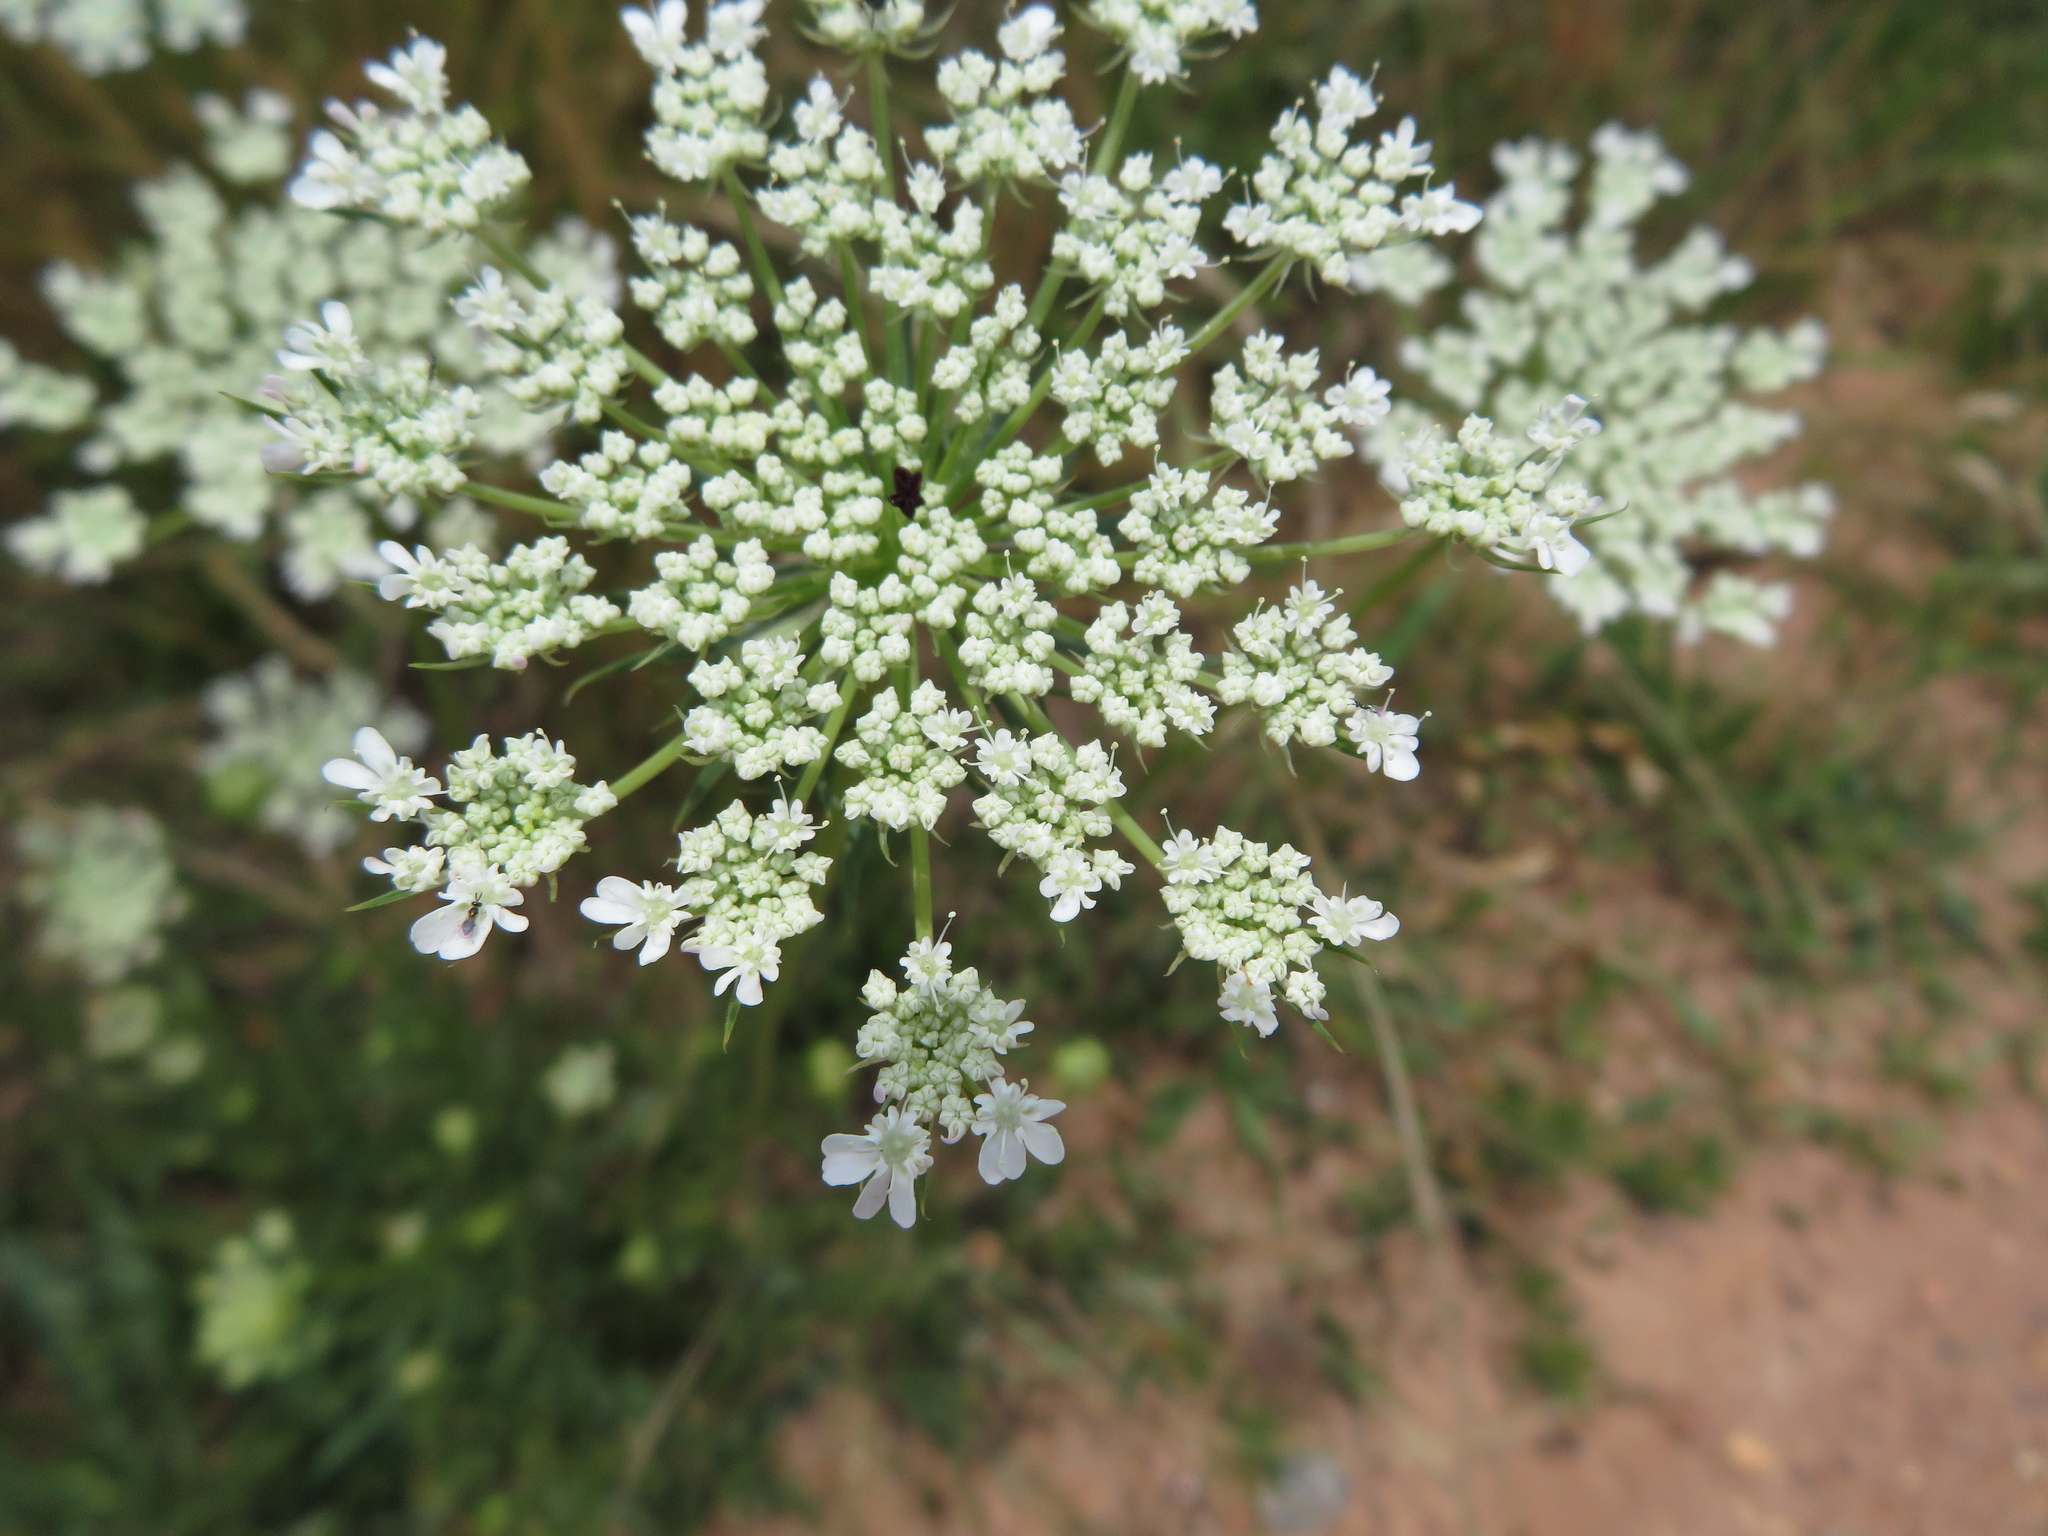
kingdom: Plantae
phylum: Tracheophyta
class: Magnoliopsida
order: Apiales
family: Apiaceae
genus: Daucus
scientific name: Daucus carota
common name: Wild carrot
